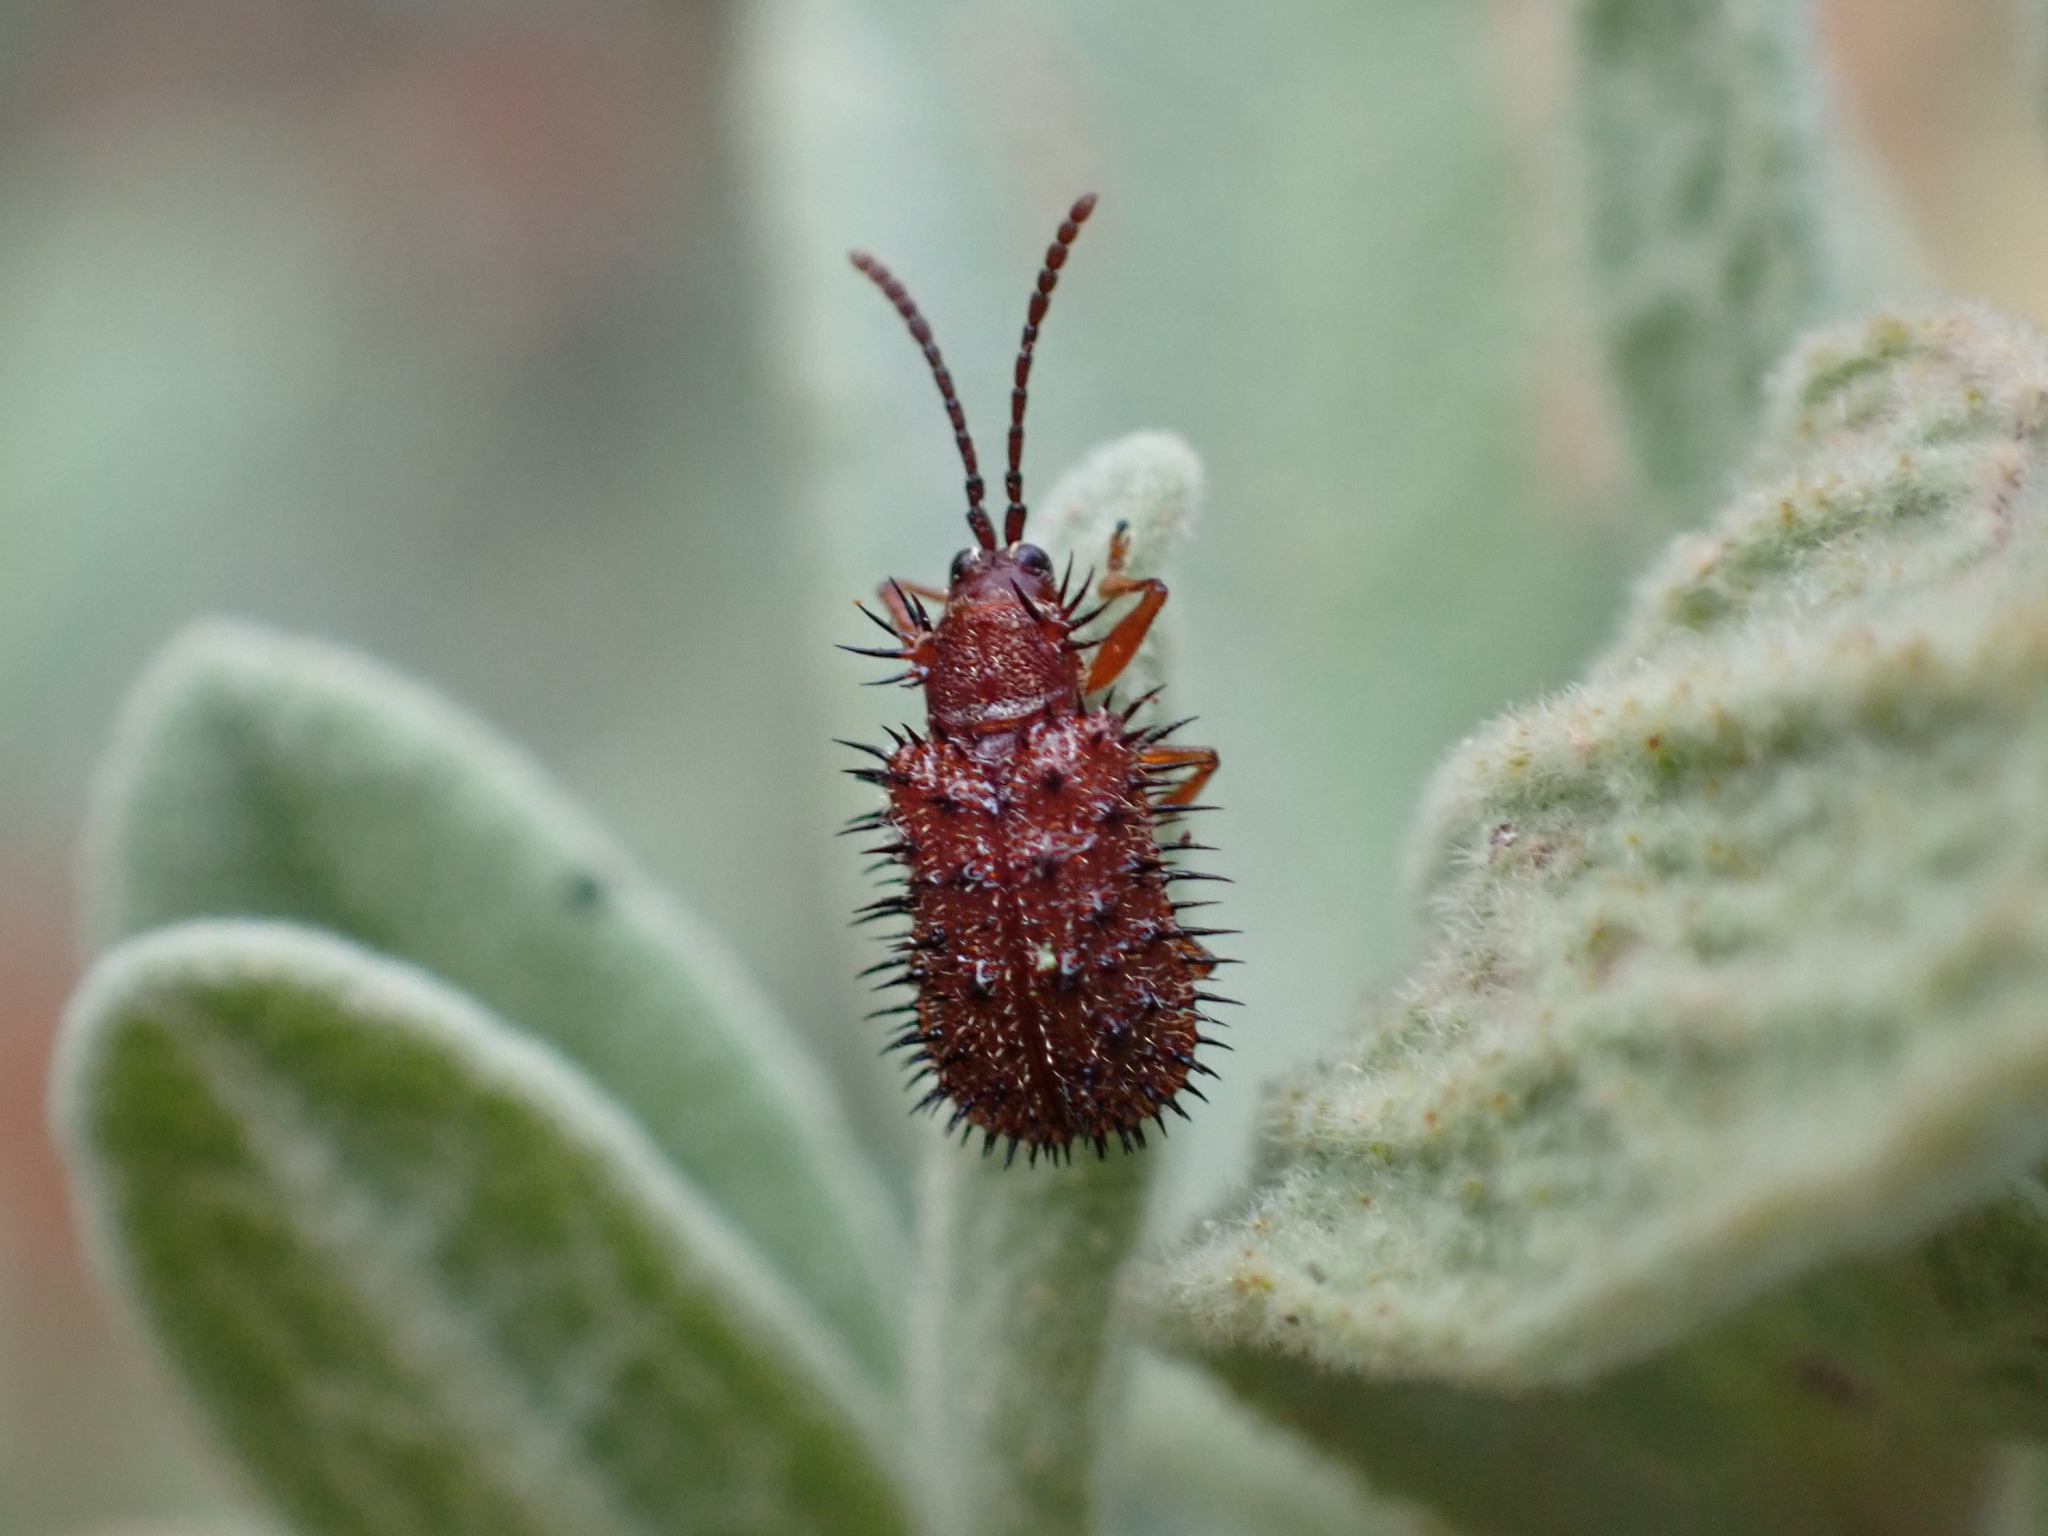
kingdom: Animalia
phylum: Arthropoda
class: Insecta
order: Coleoptera
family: Chrysomelidae
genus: Dicladispa
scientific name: Dicladispa testacea
